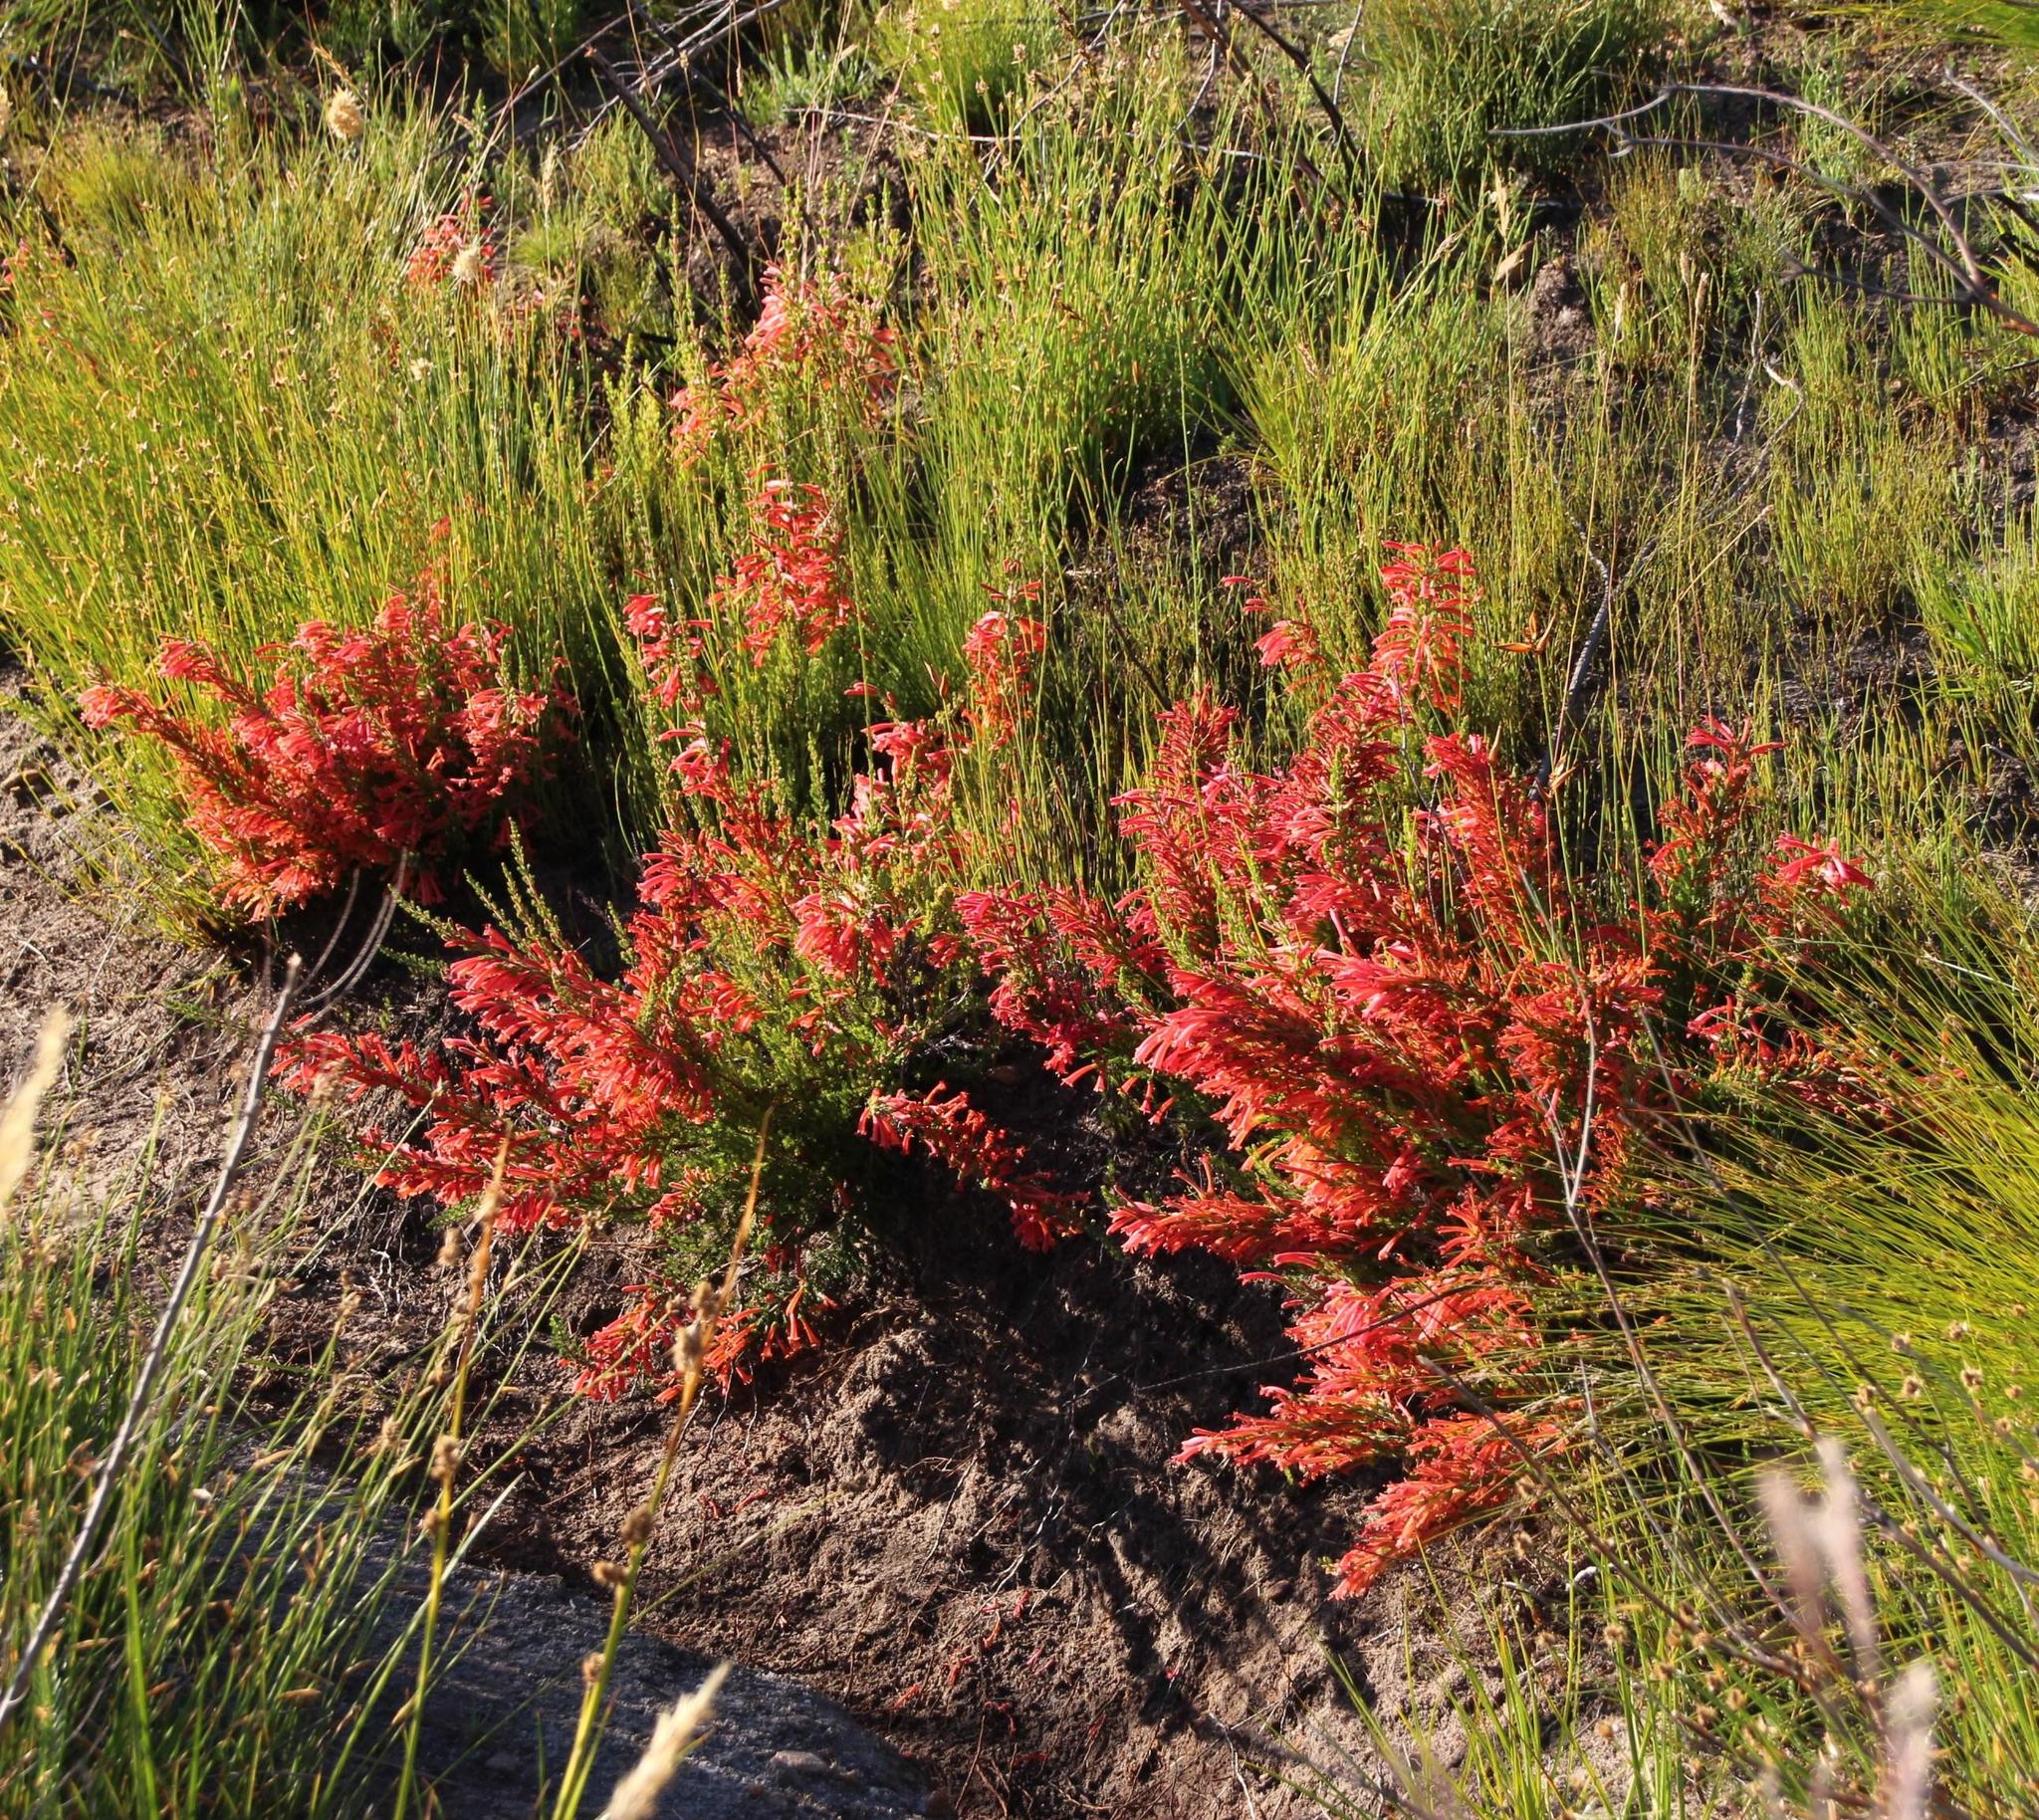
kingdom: Plantae
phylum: Tracheophyta
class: Magnoliopsida
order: Ericales
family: Ericaceae
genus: Erica
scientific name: Erica curviflora
